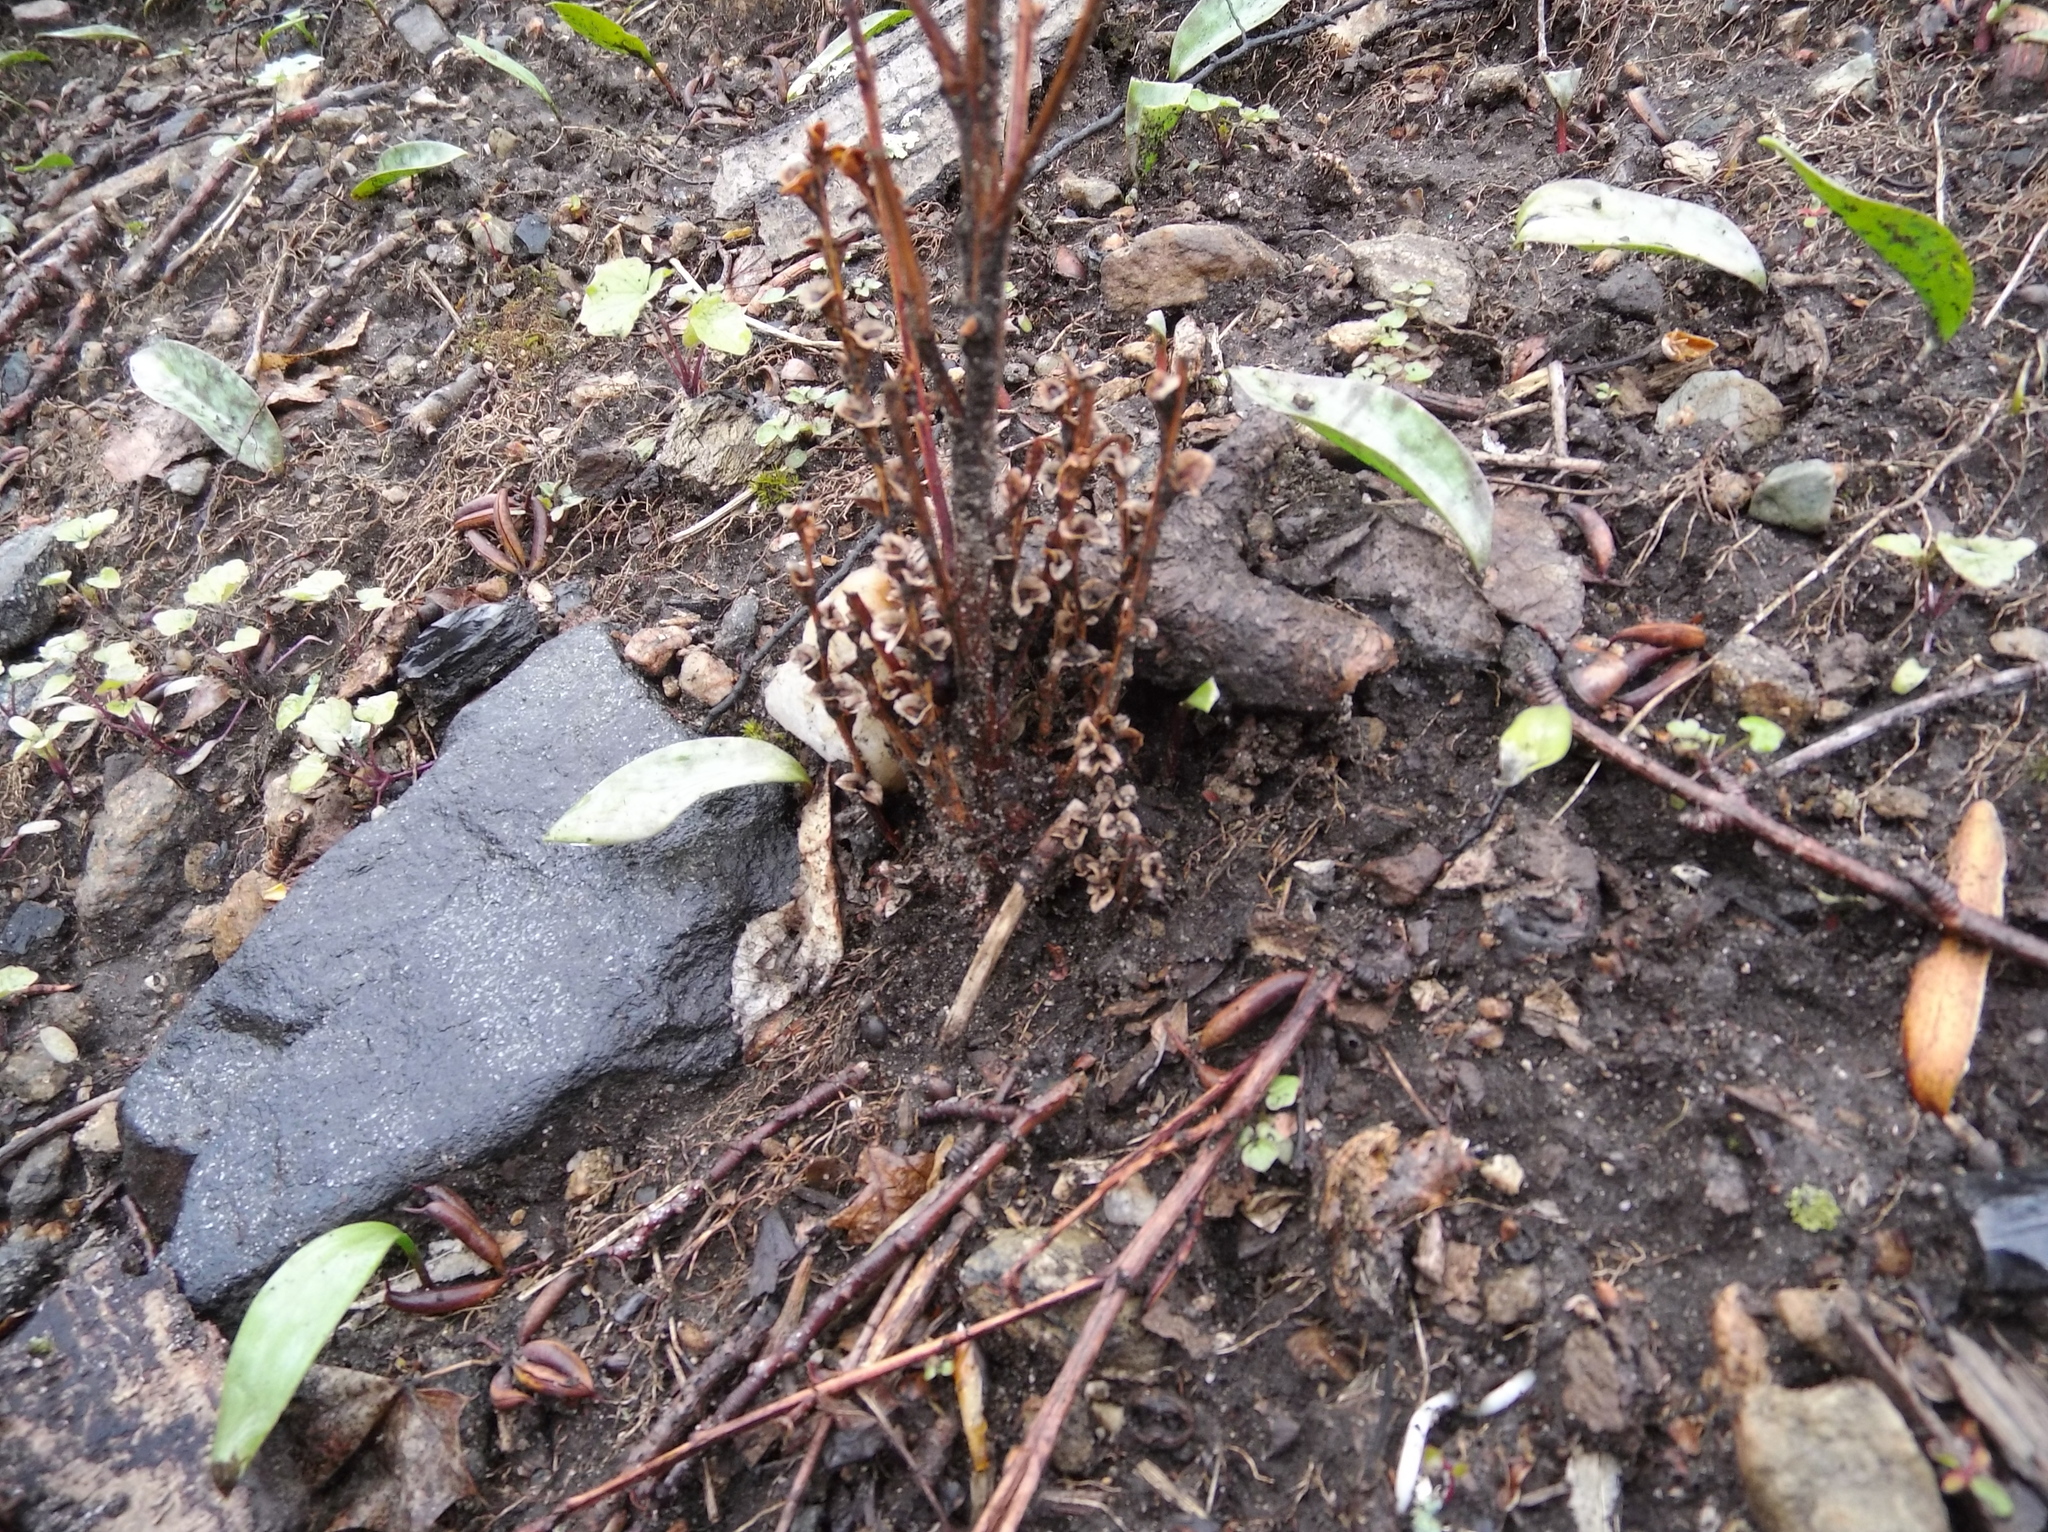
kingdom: Plantae
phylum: Tracheophyta
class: Magnoliopsida
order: Lamiales
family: Orobanchaceae
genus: Epifagus
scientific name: Epifagus virginiana
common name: Beechdrops
